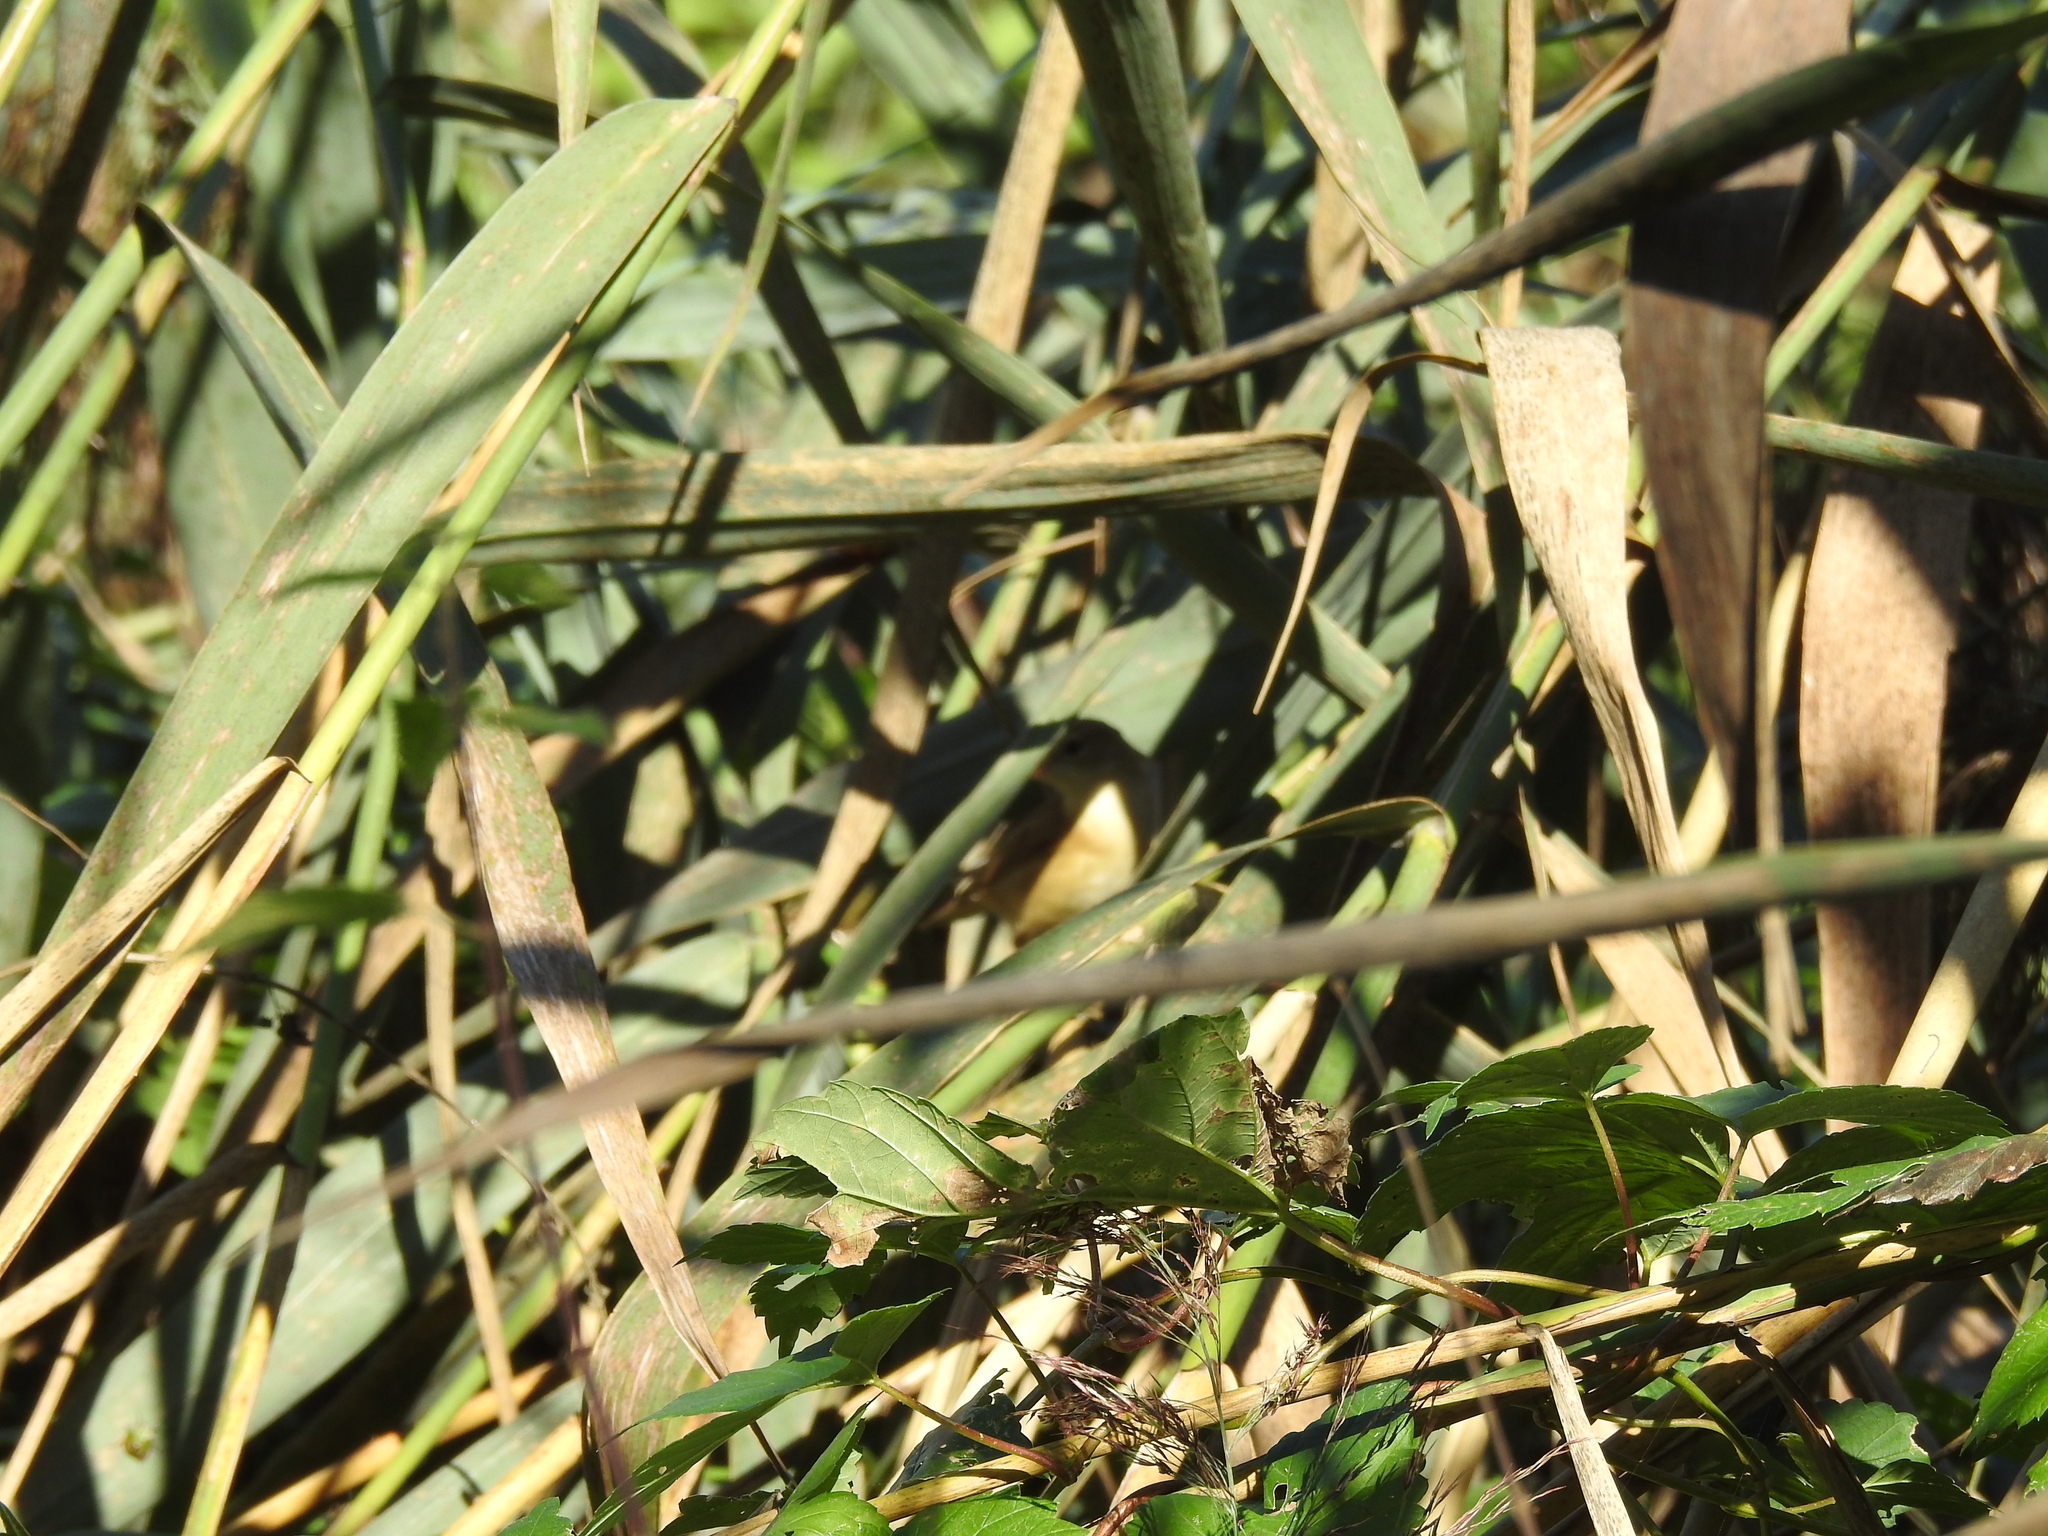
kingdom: Animalia
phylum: Chordata
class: Aves
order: Passeriformes
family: Acrocephalidae
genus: Acrocephalus
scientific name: Acrocephalus scirpaceus
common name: Eurasian reed warbler
